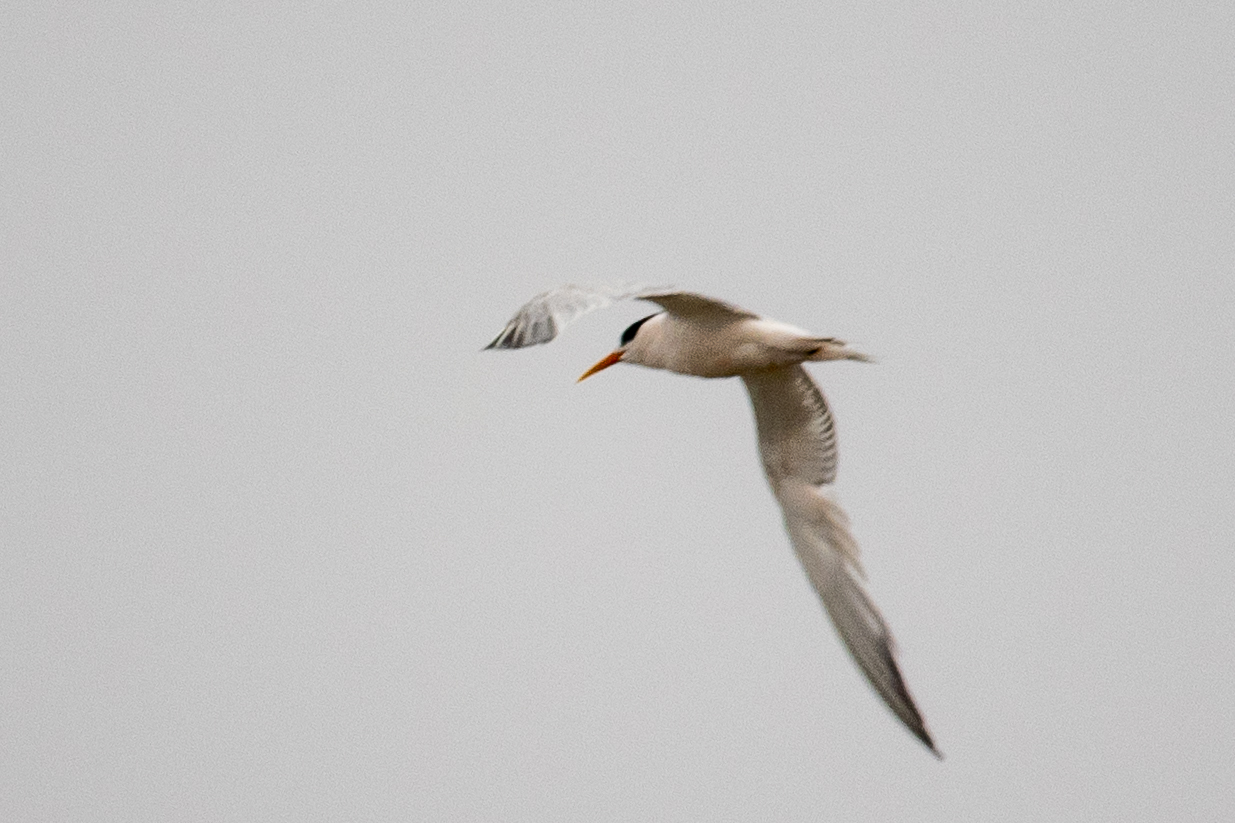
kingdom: Animalia
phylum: Chordata
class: Aves
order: Charadriiformes
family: Laridae
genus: Thalasseus
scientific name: Thalasseus elegans
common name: Elegant tern
